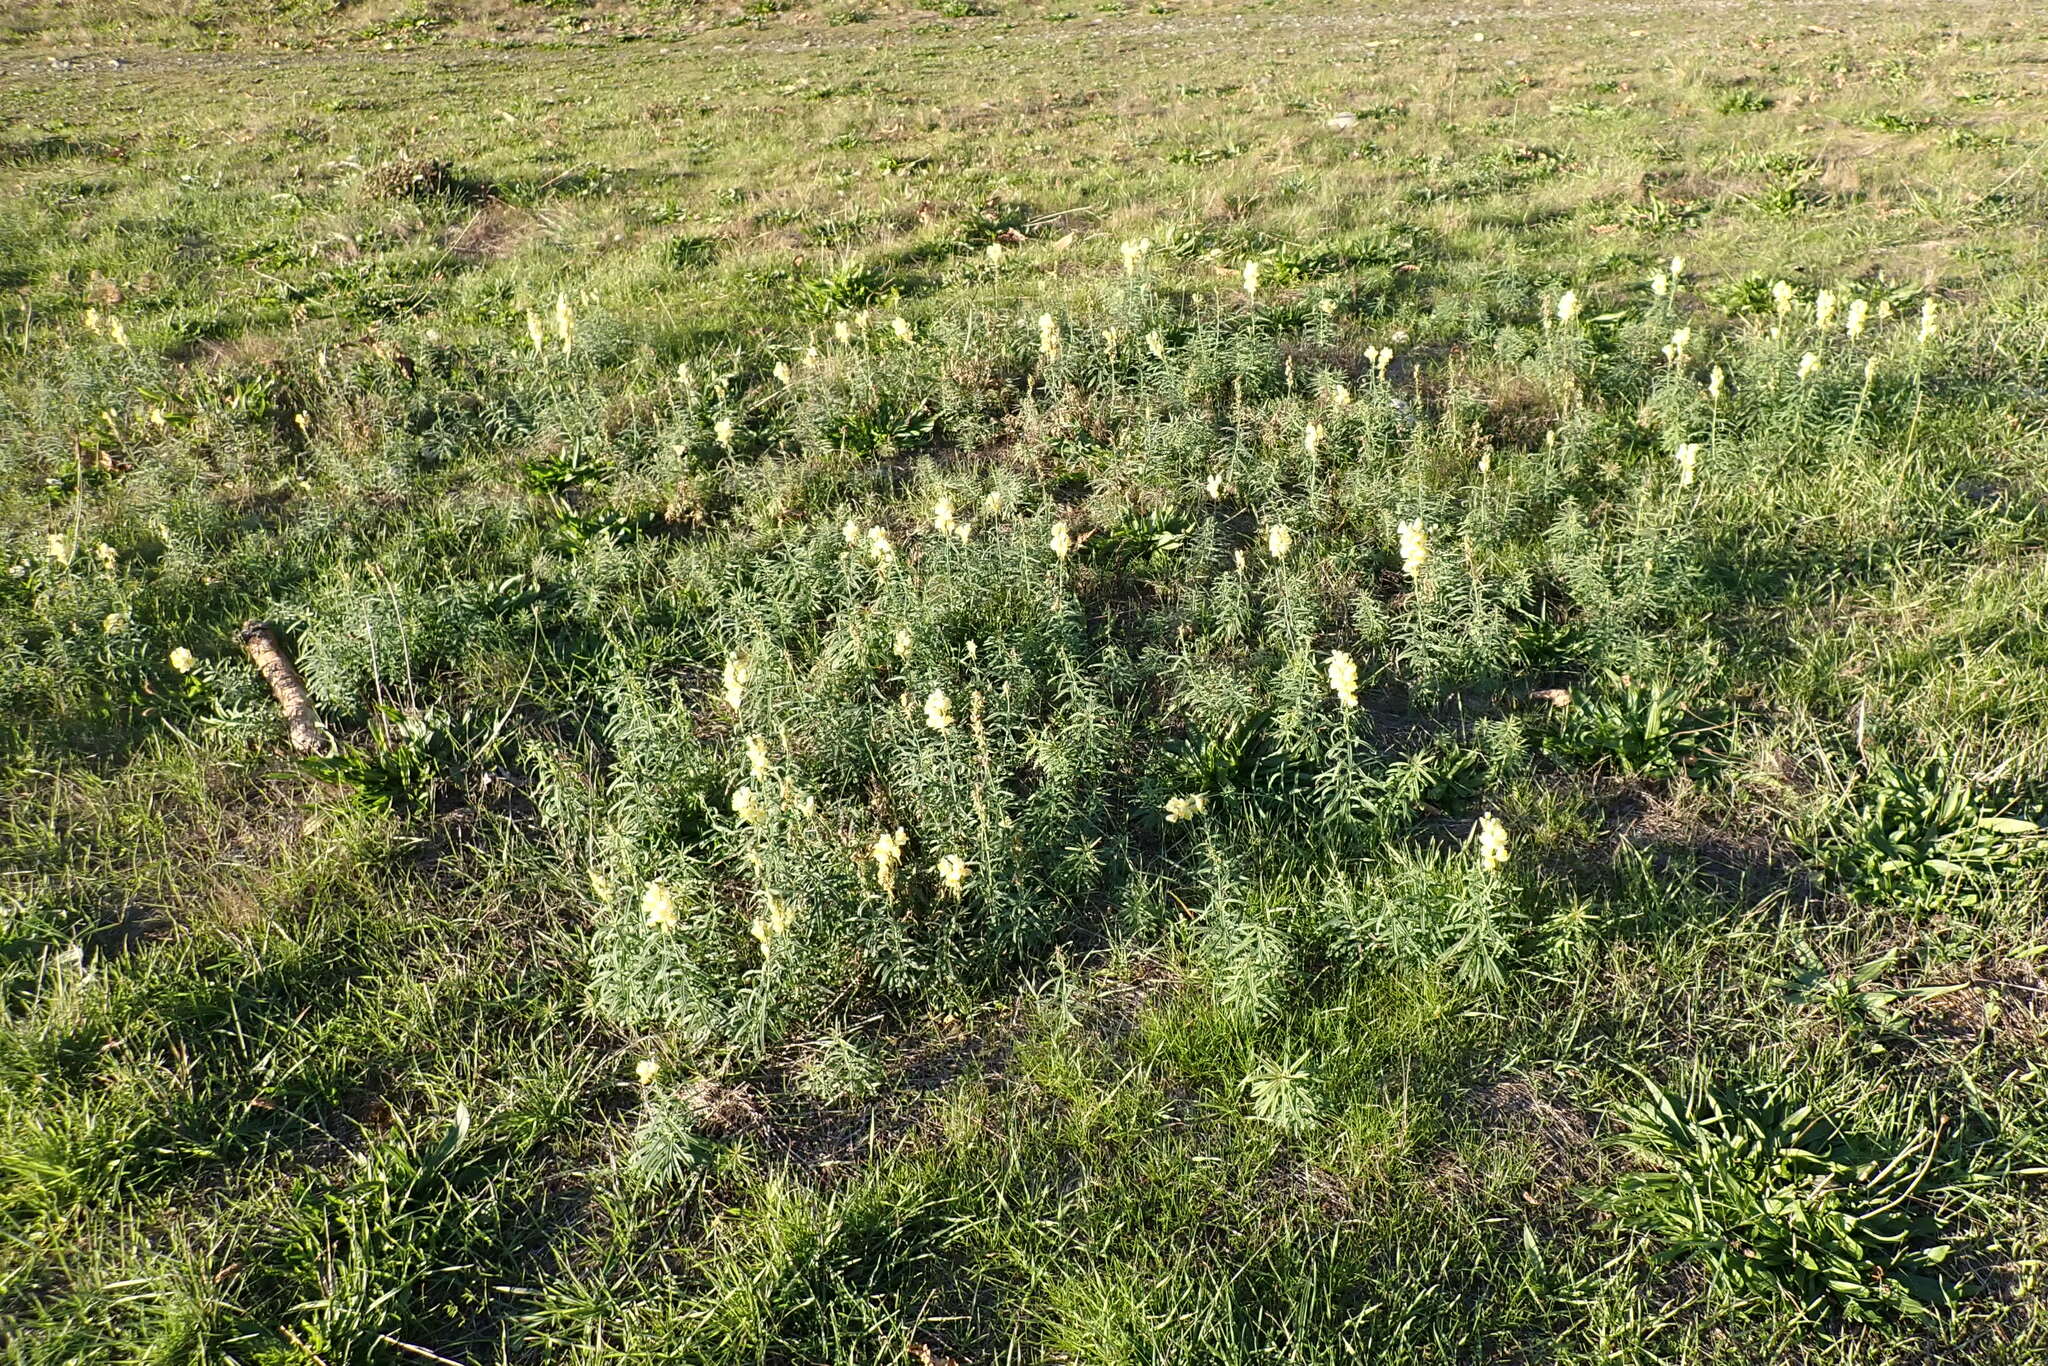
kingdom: Plantae
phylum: Tracheophyta
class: Magnoliopsida
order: Lamiales
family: Plantaginaceae
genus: Linaria
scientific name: Linaria vulgaris
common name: Butter and eggs
